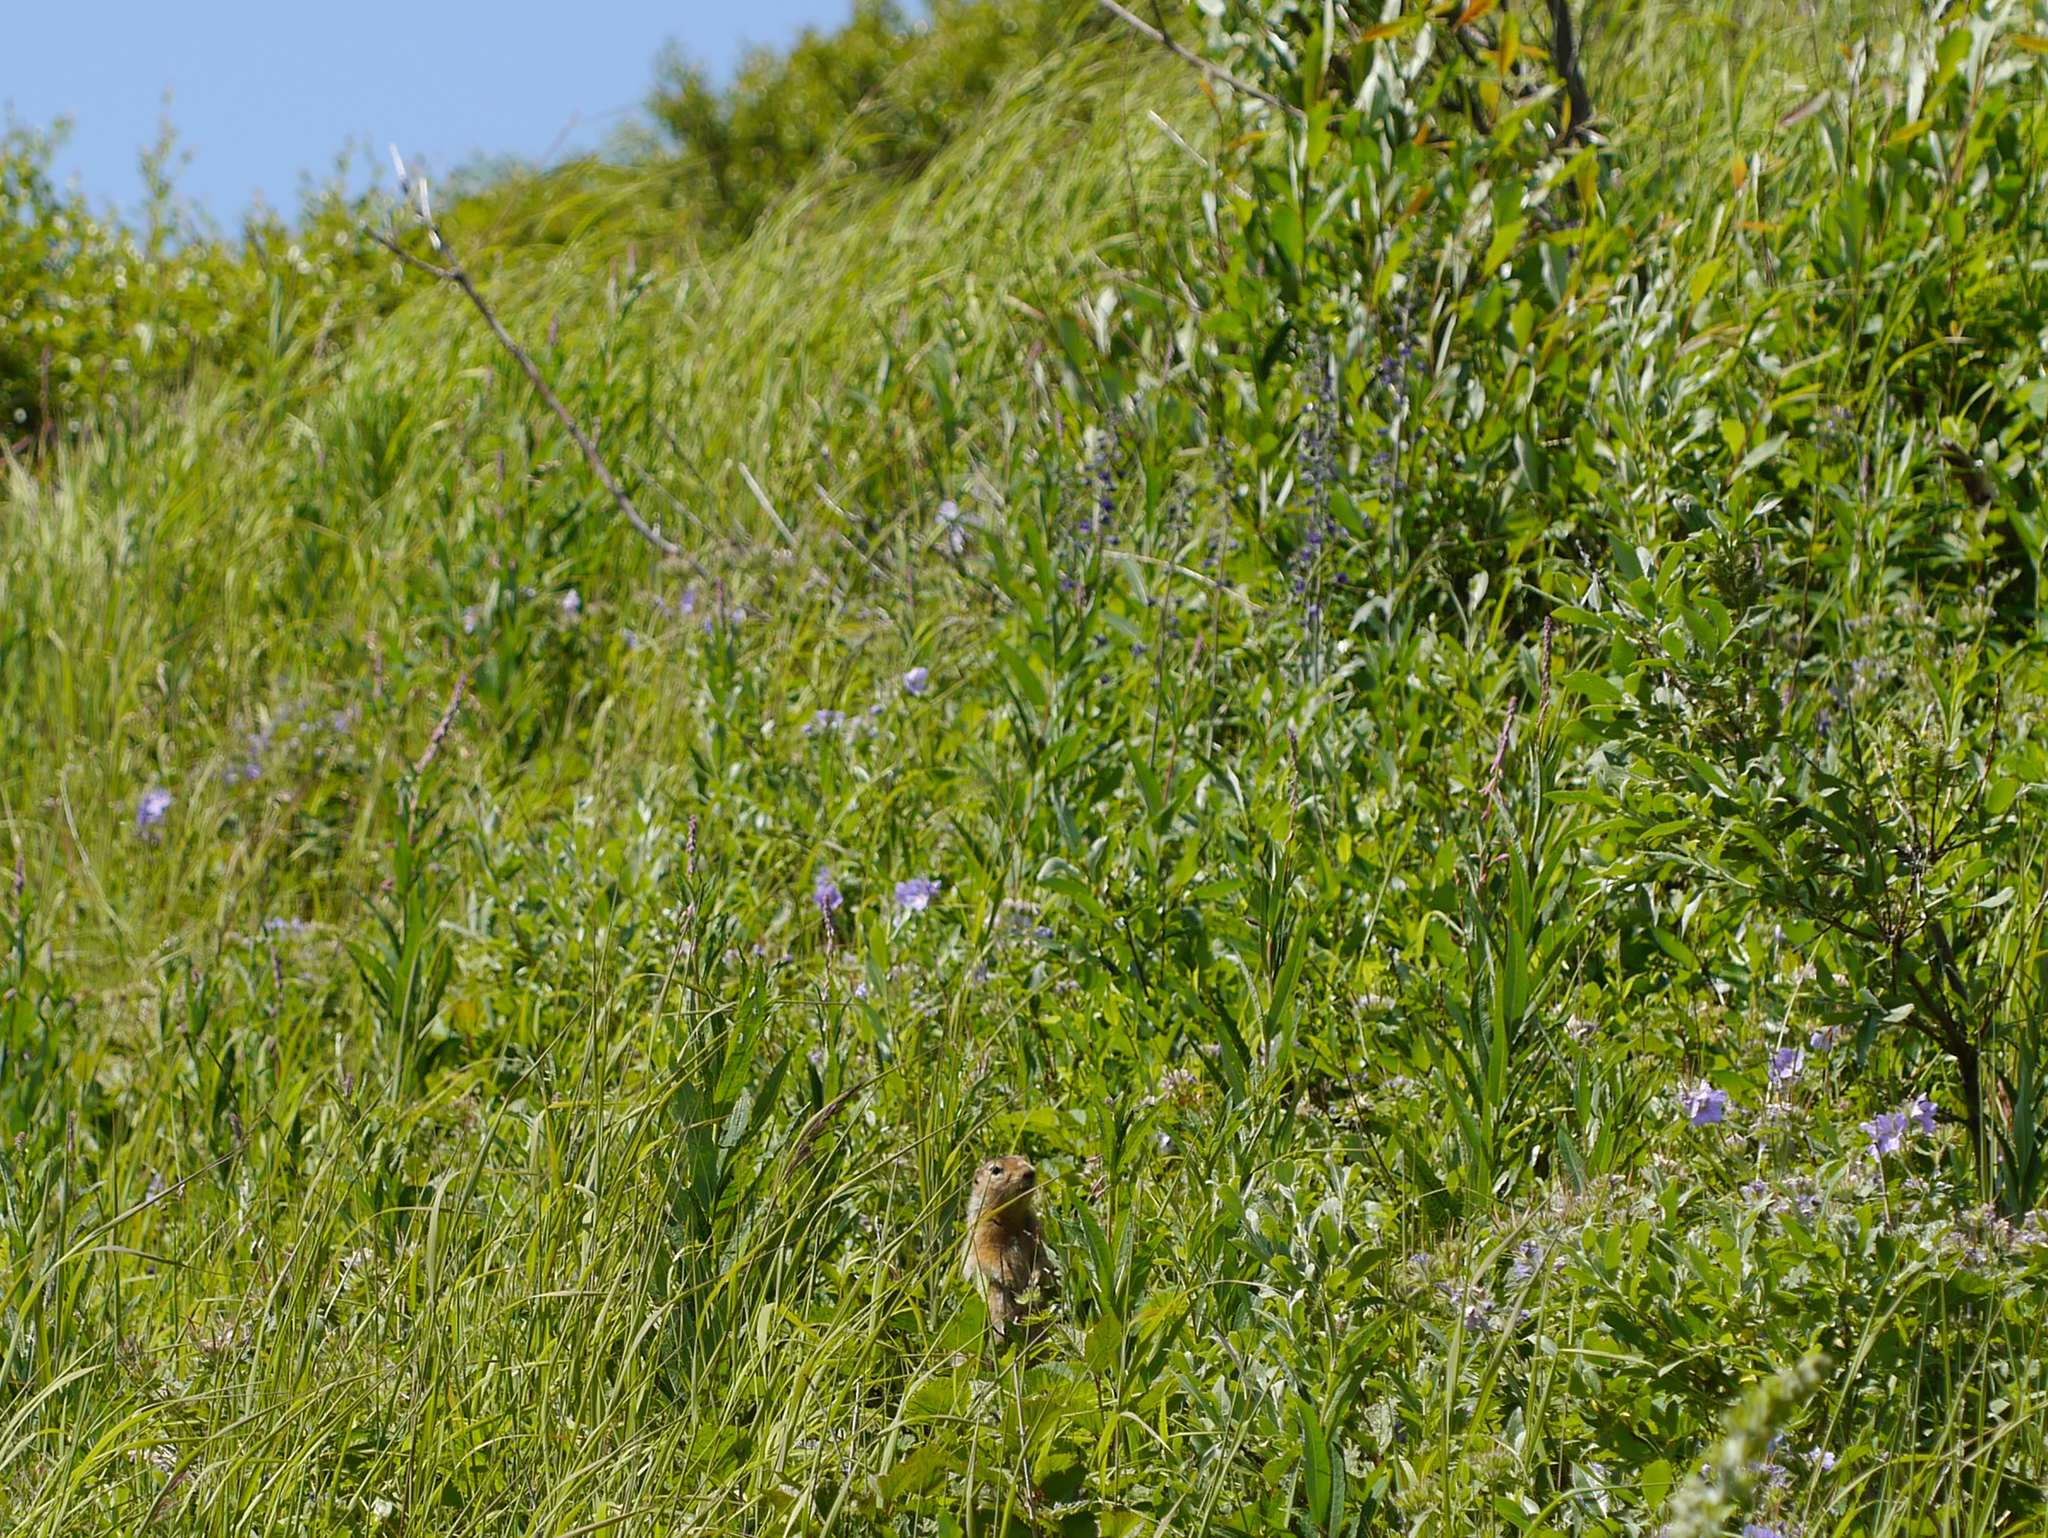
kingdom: Animalia
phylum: Chordata
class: Mammalia
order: Rodentia
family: Sciuridae
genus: Urocitellus
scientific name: Urocitellus parryii
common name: Arctic ground squirrel
